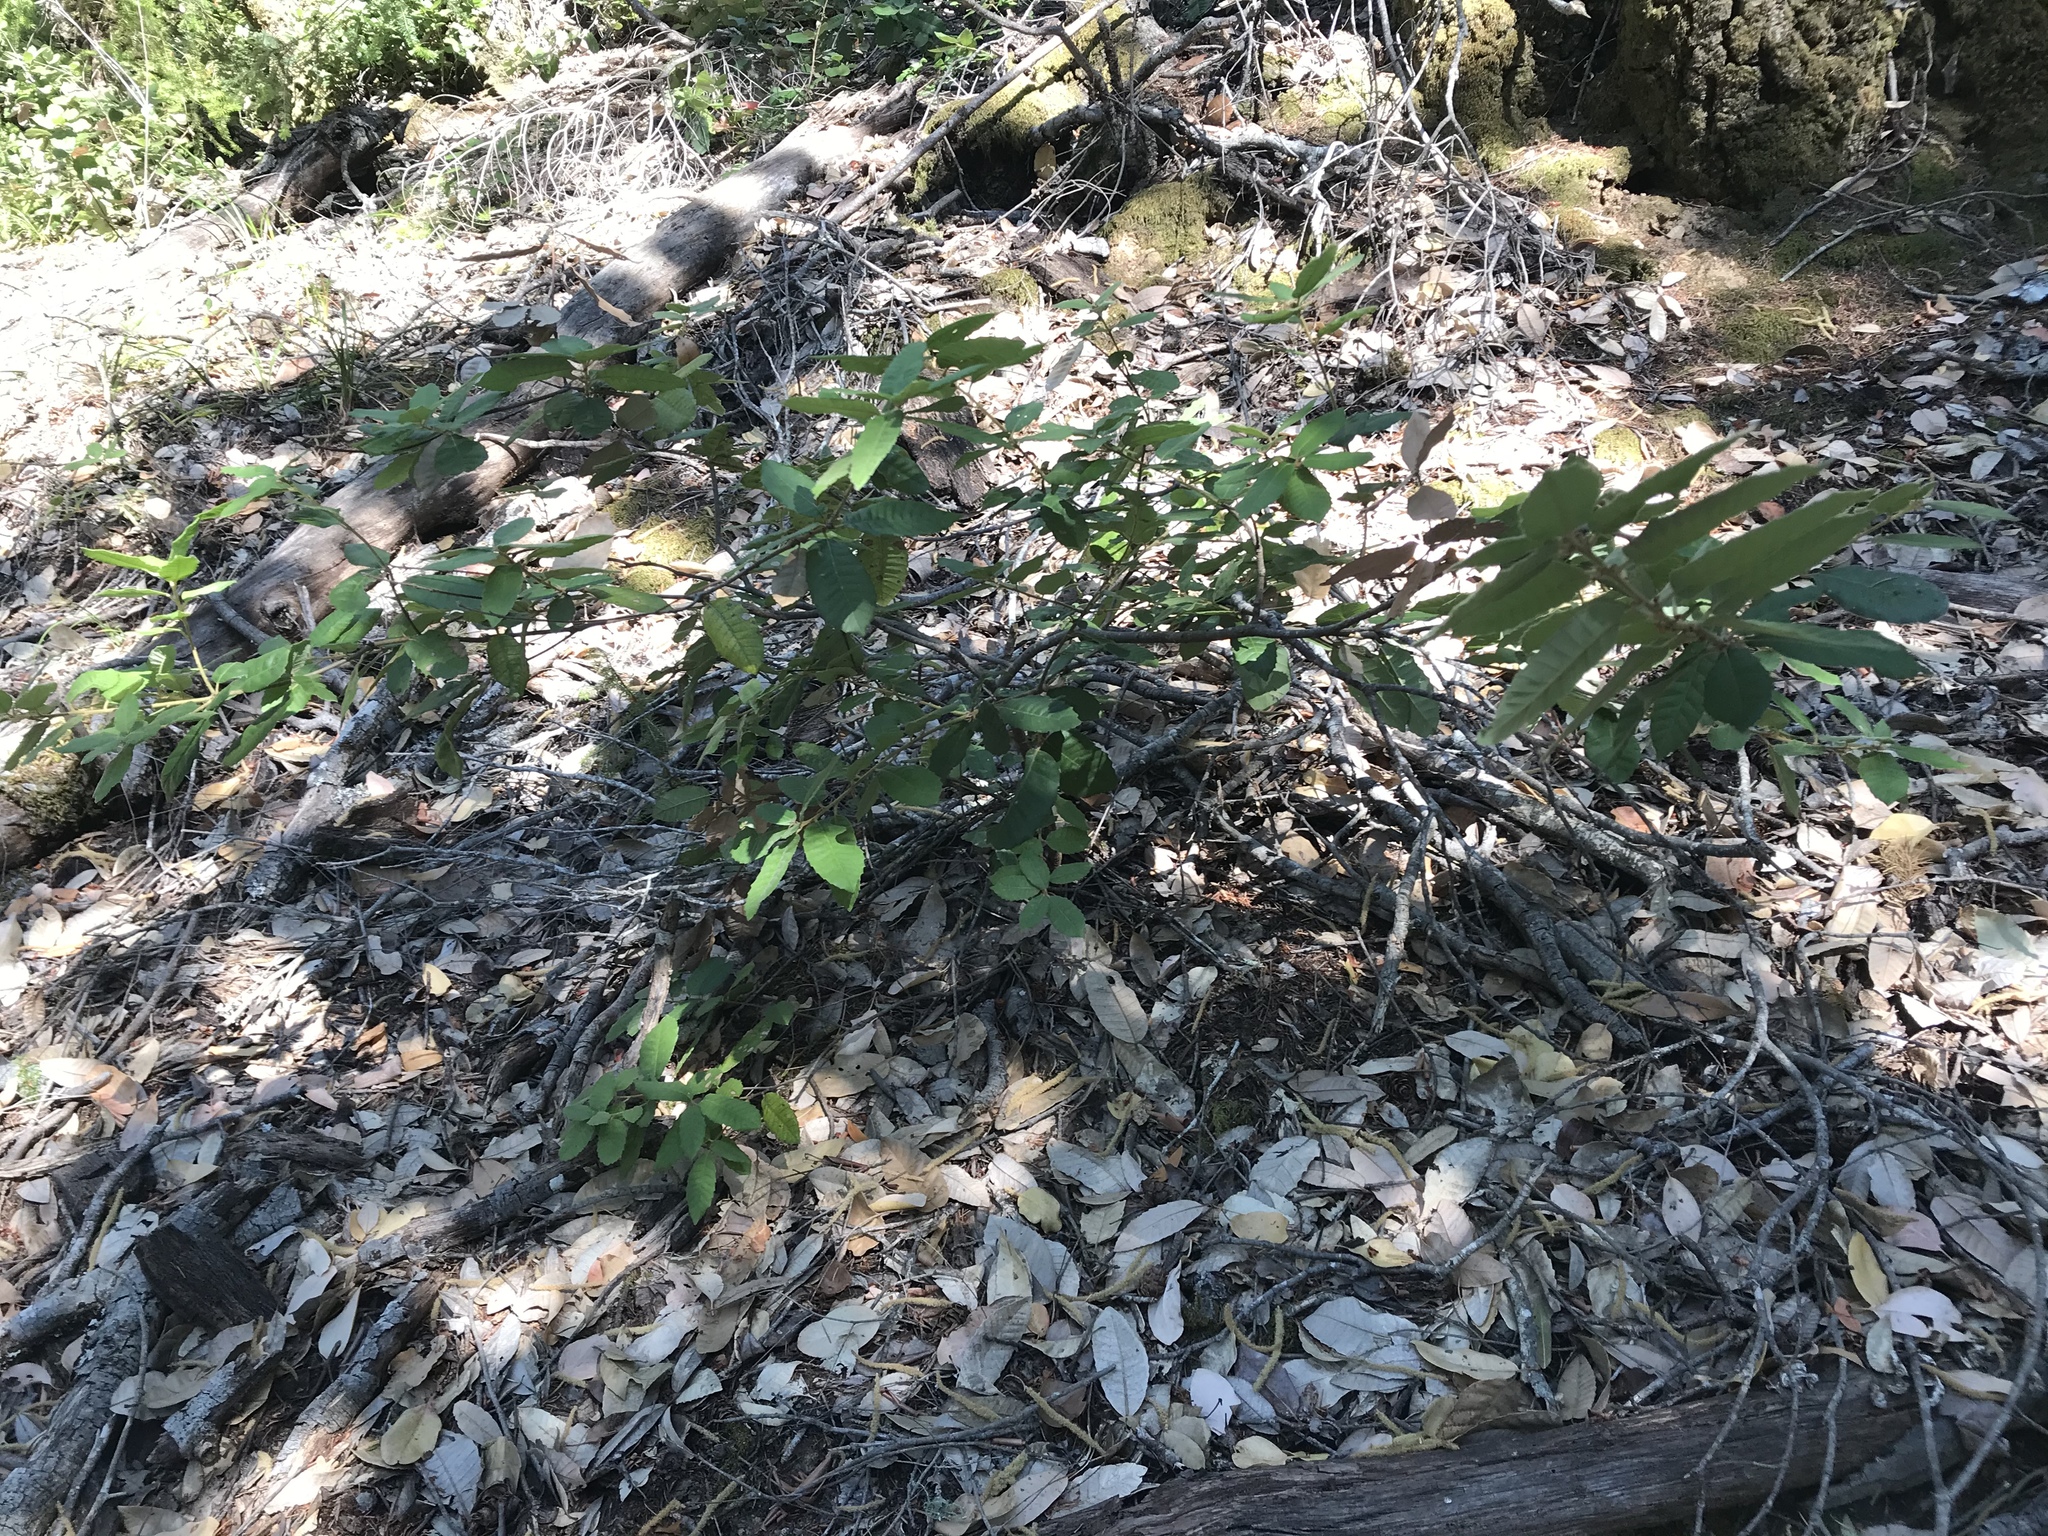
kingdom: Plantae
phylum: Tracheophyta
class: Magnoliopsida
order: Fagales
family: Fagaceae
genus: Notholithocarpus
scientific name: Notholithocarpus densiflorus
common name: Tan bark oak
